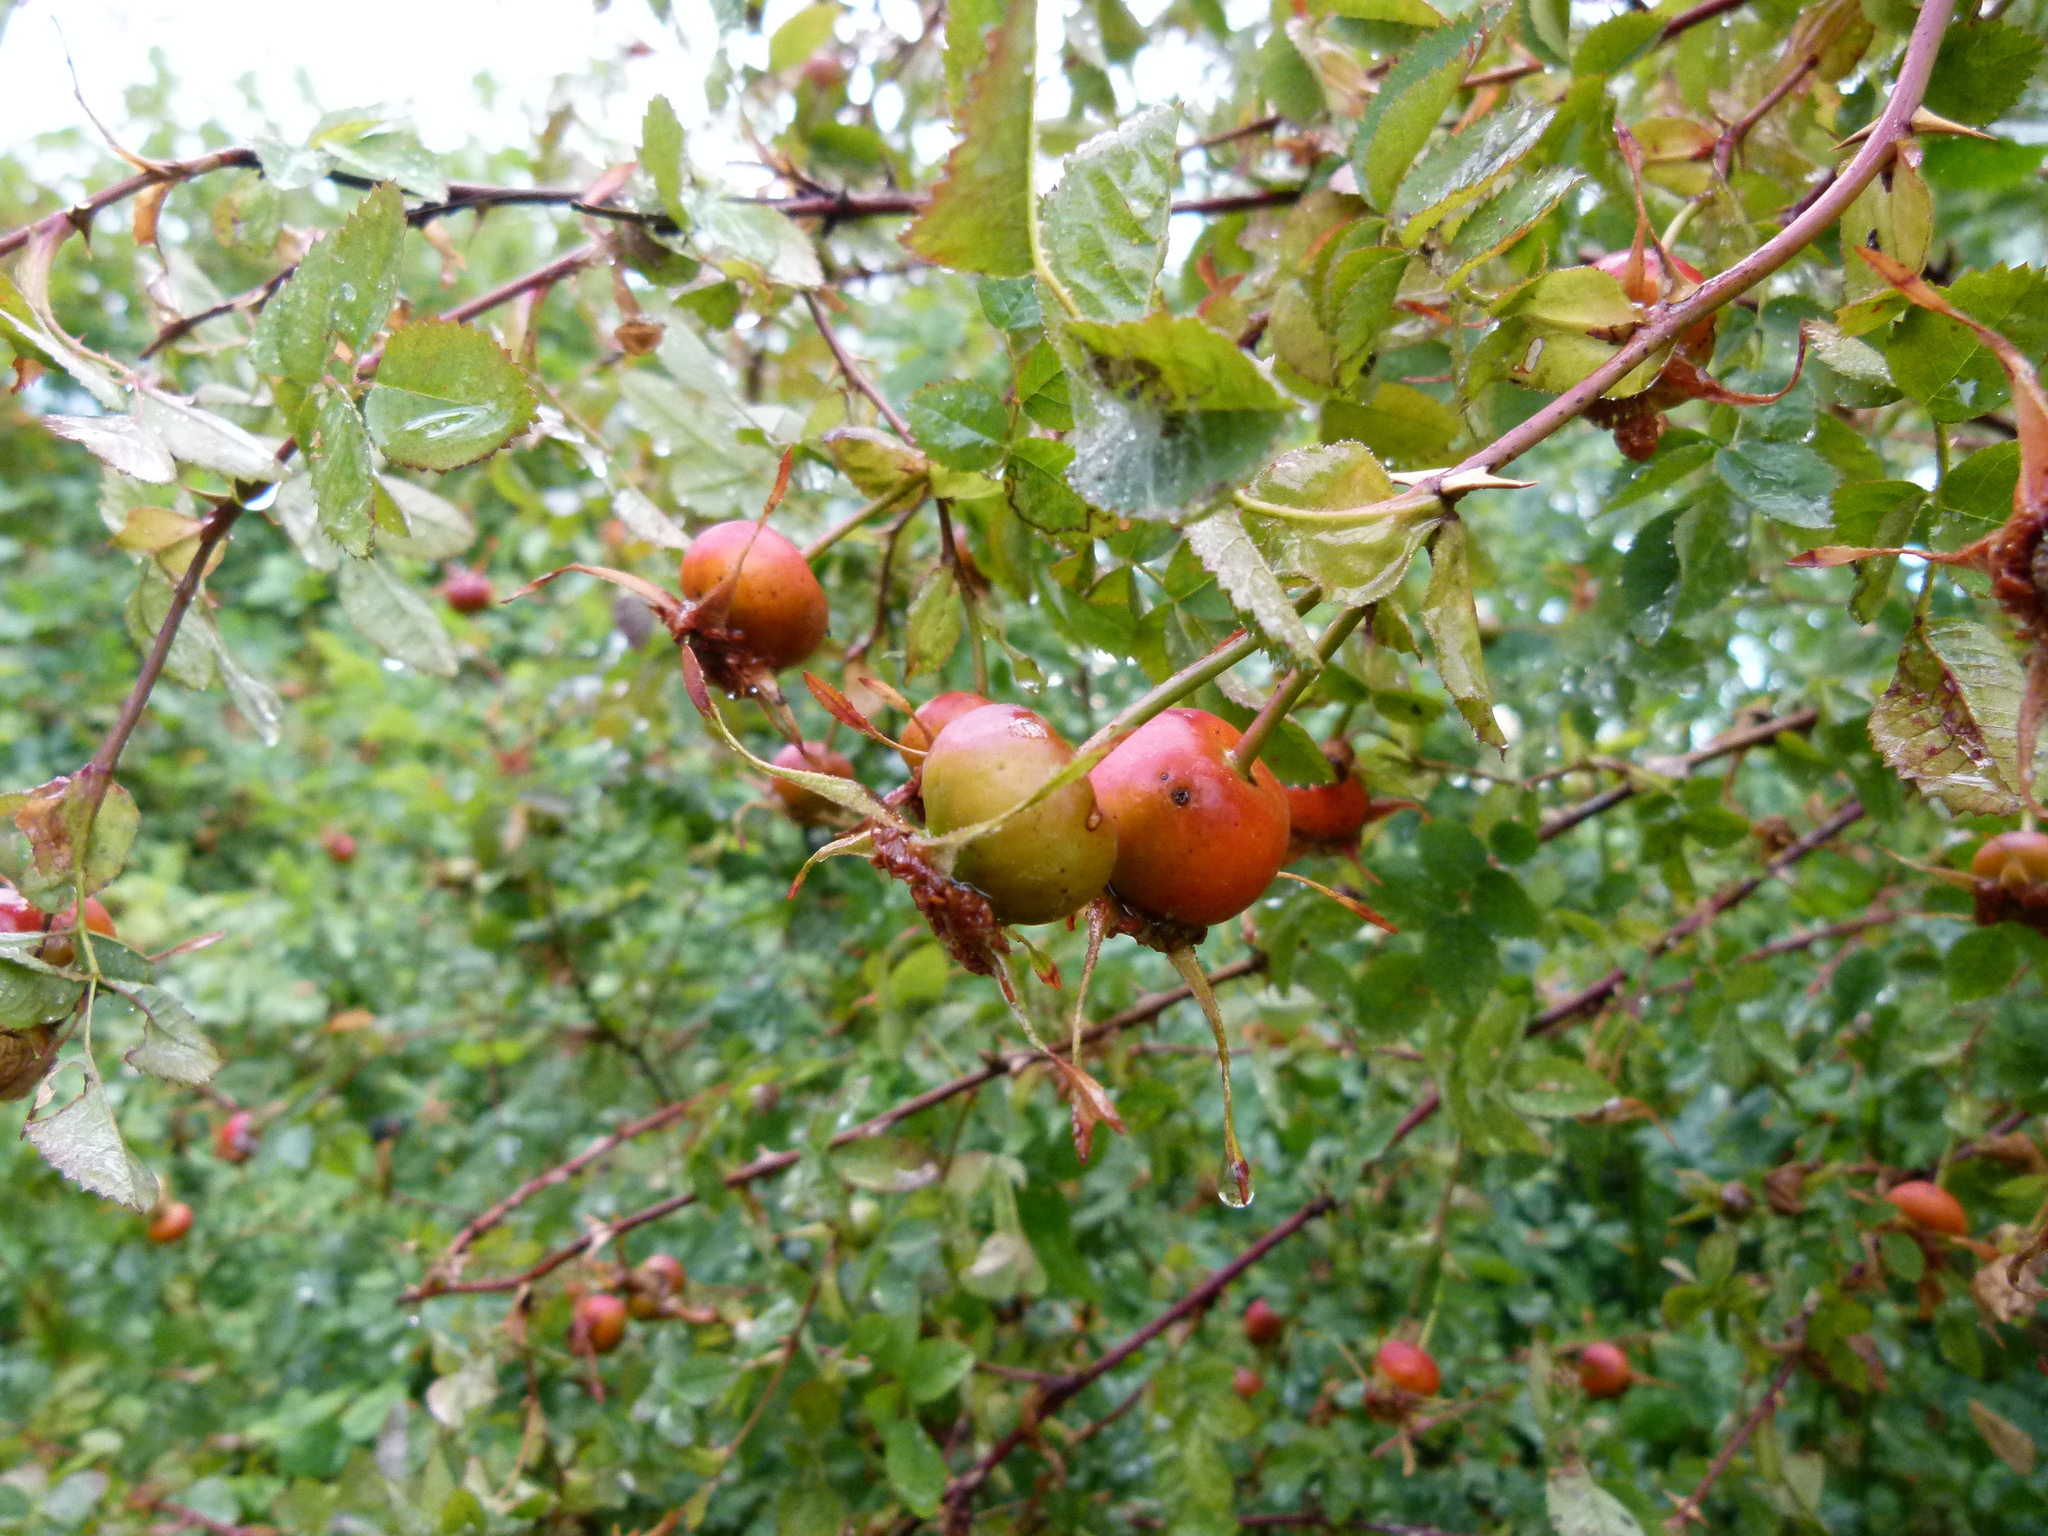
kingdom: Plantae
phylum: Tracheophyta
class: Magnoliopsida
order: Rosales
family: Rosaceae
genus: Rosa
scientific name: Rosa nutkana
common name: Nootka rose
